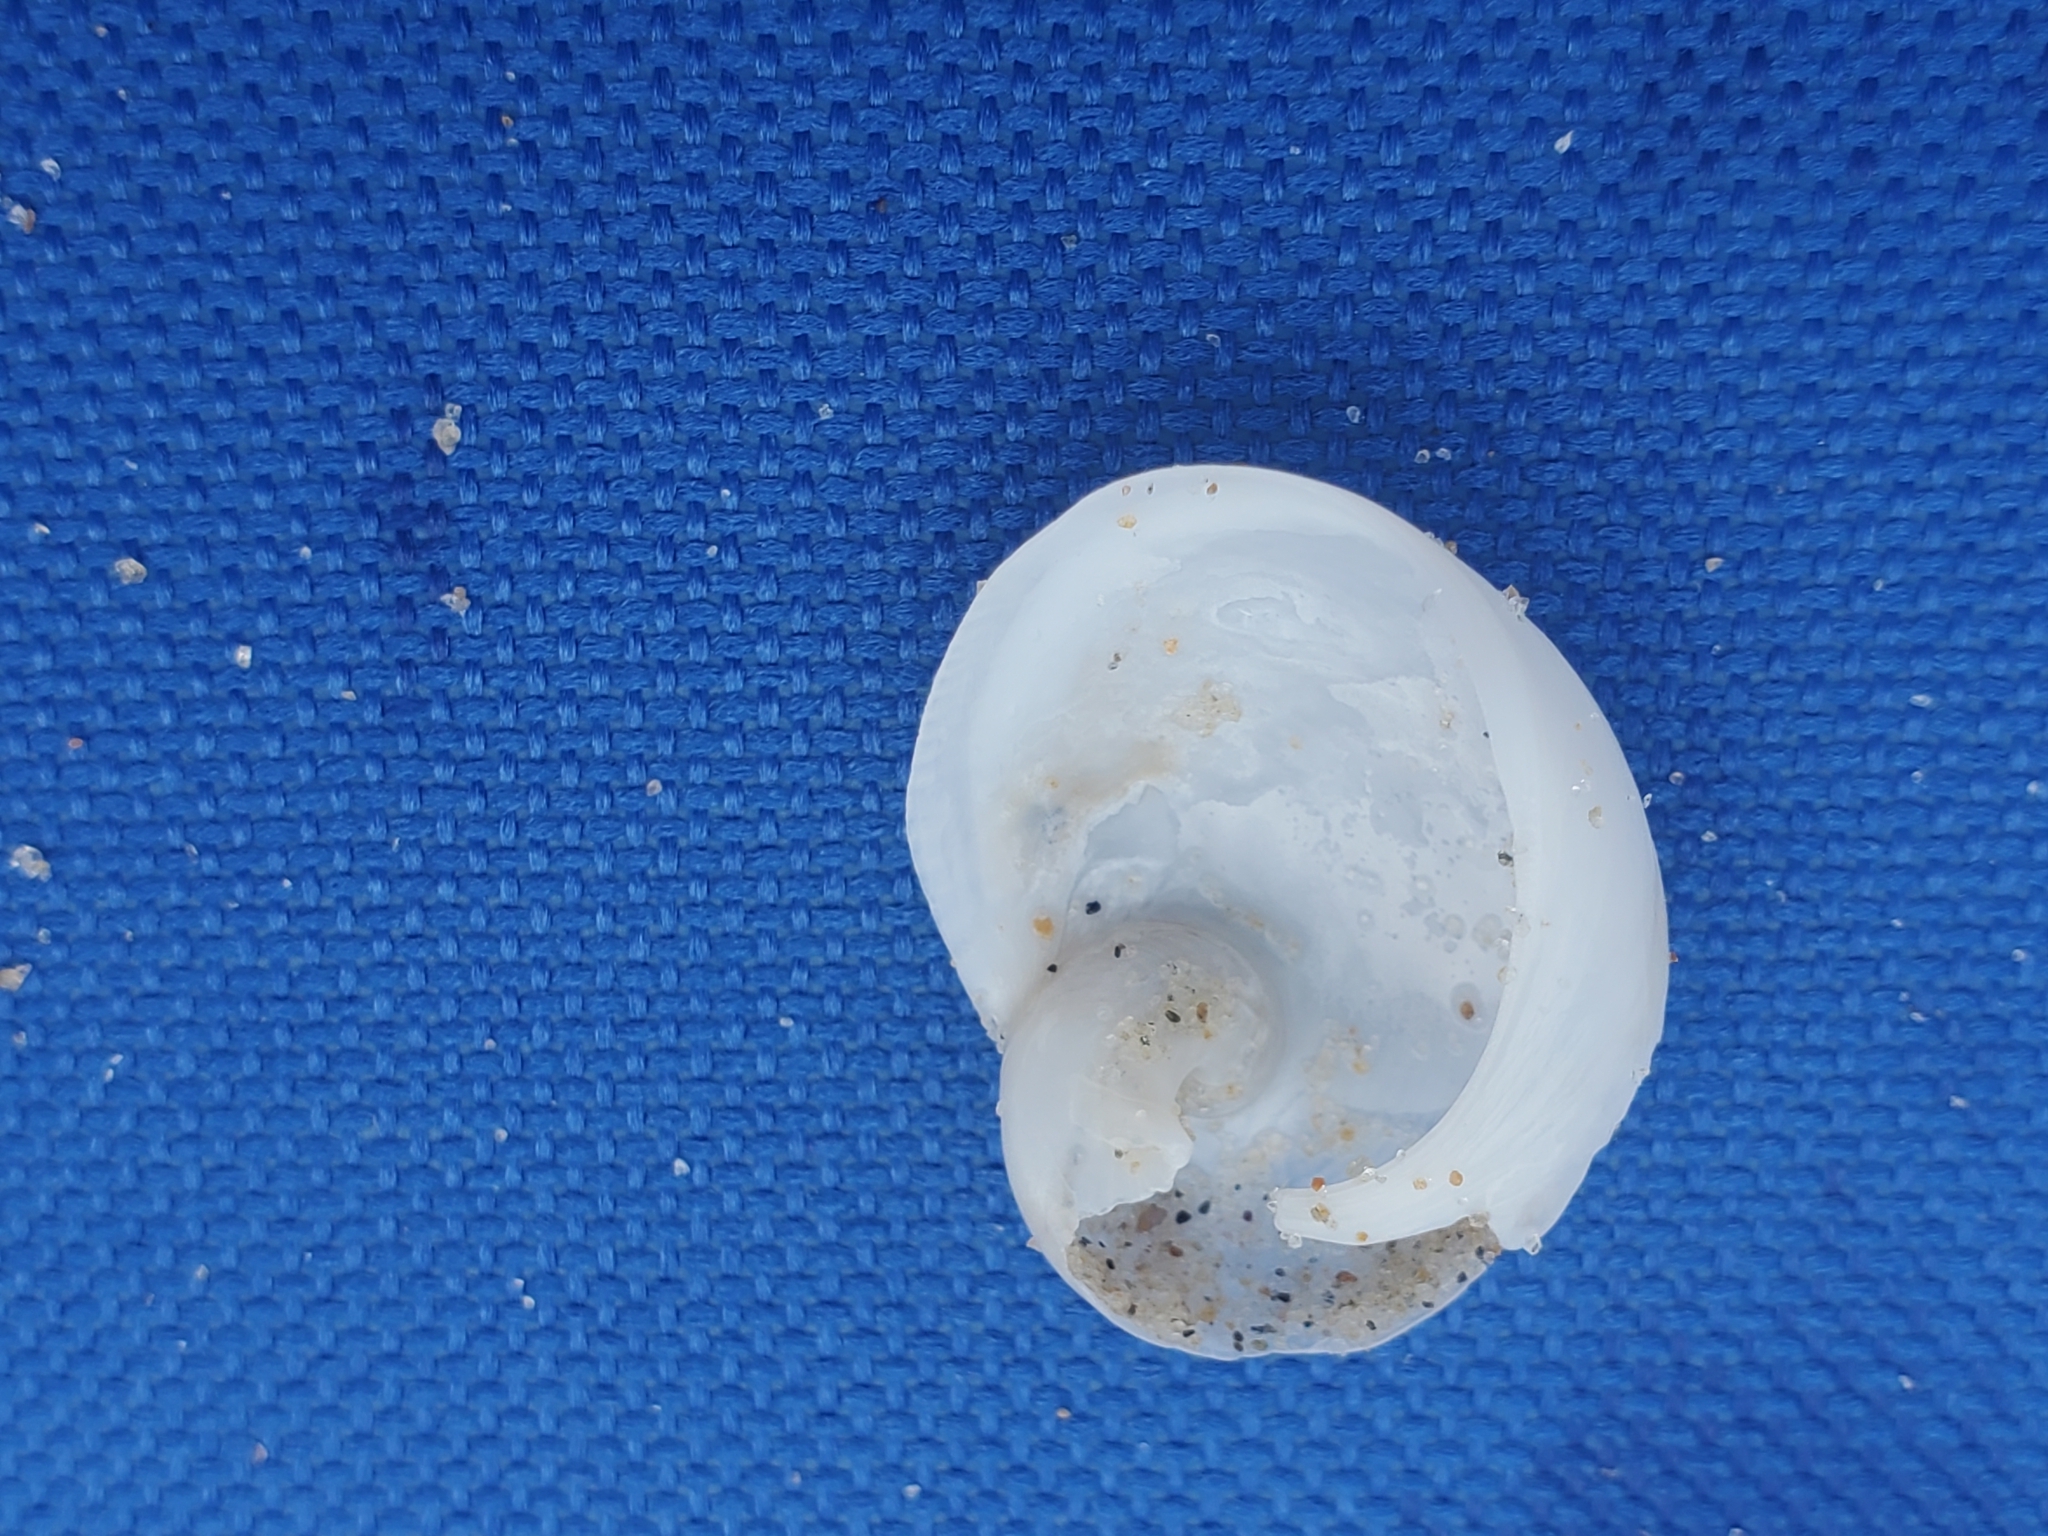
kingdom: Animalia
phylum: Mollusca
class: Gastropoda
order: Littorinimorpha
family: Naticidae
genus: Sinum
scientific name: Sinum perspectivum
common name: White baby ear
